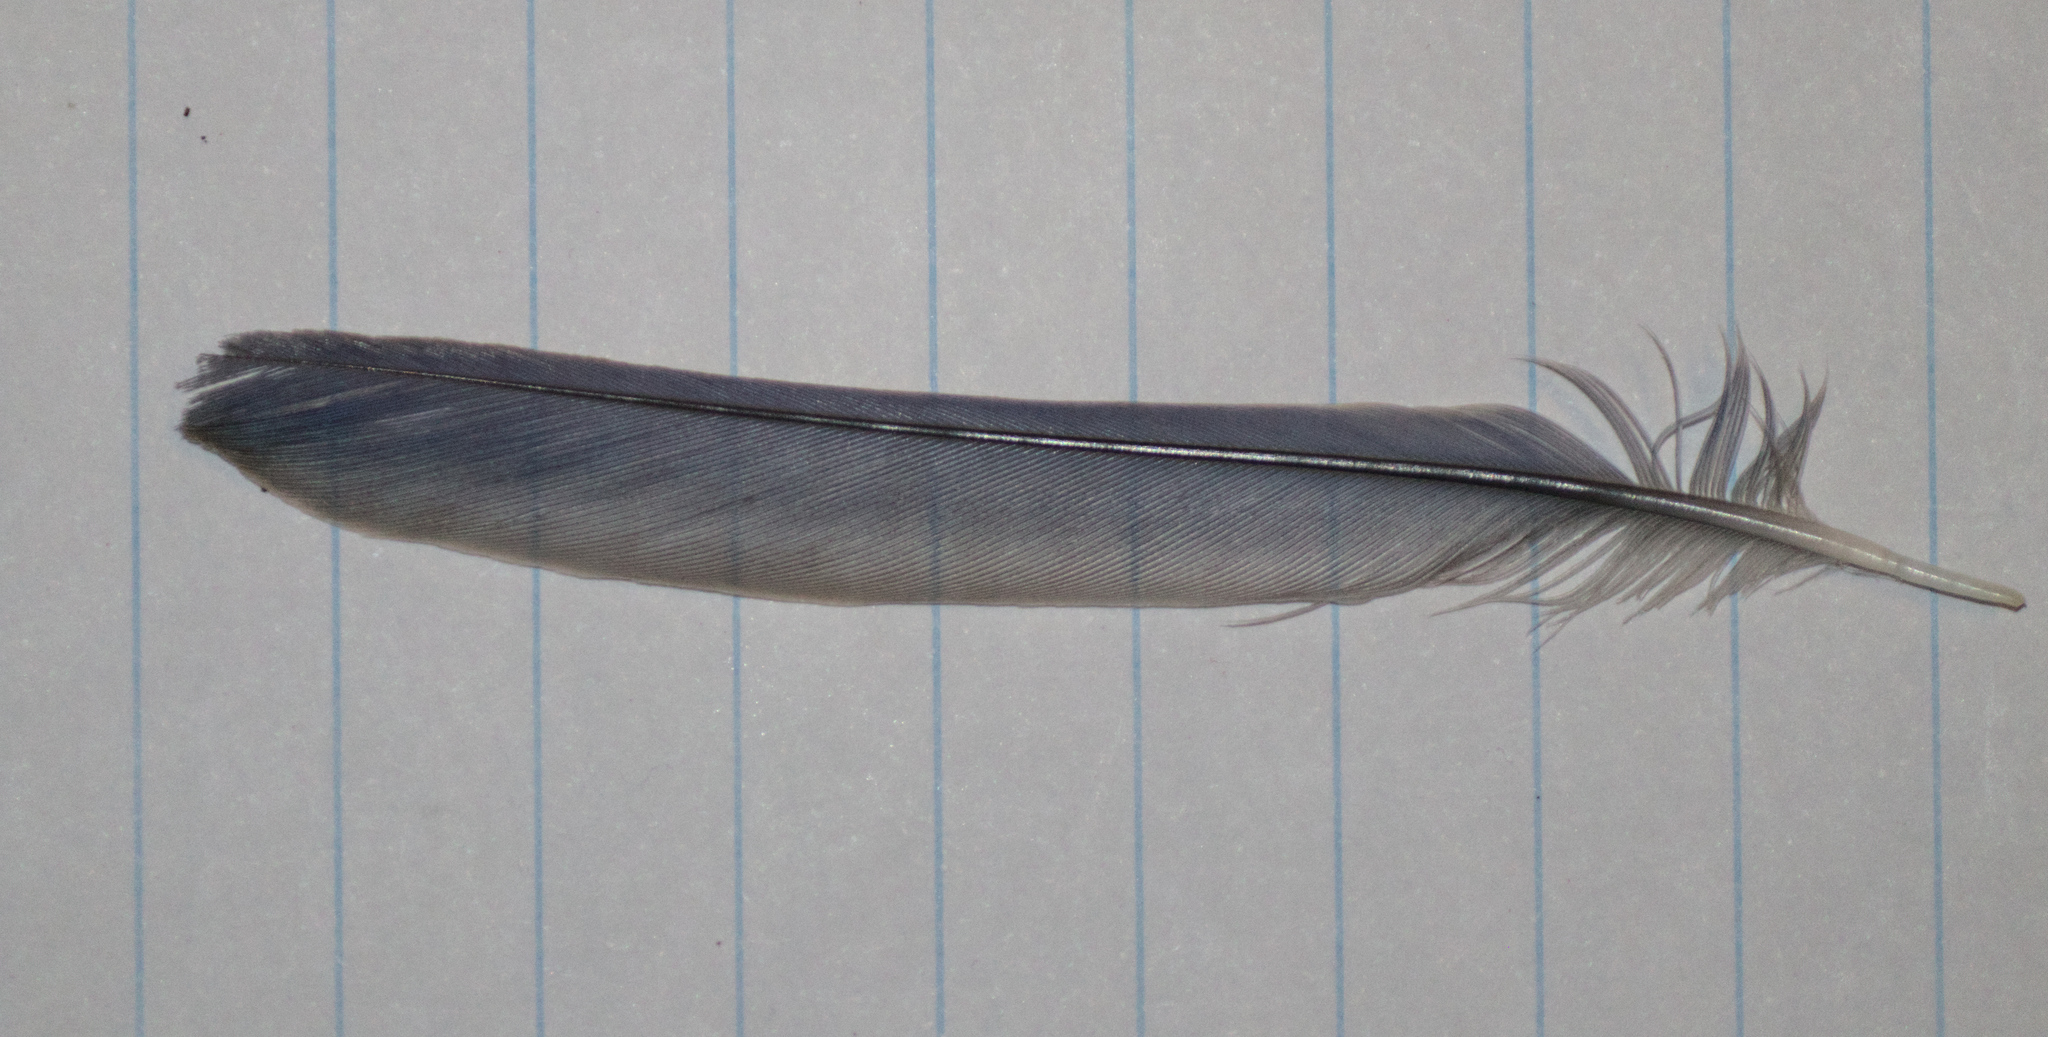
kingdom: Animalia
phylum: Chordata
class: Aves
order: Passeriformes
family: Turdidae
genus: Sialia
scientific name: Sialia sialis
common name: Eastern bluebird
